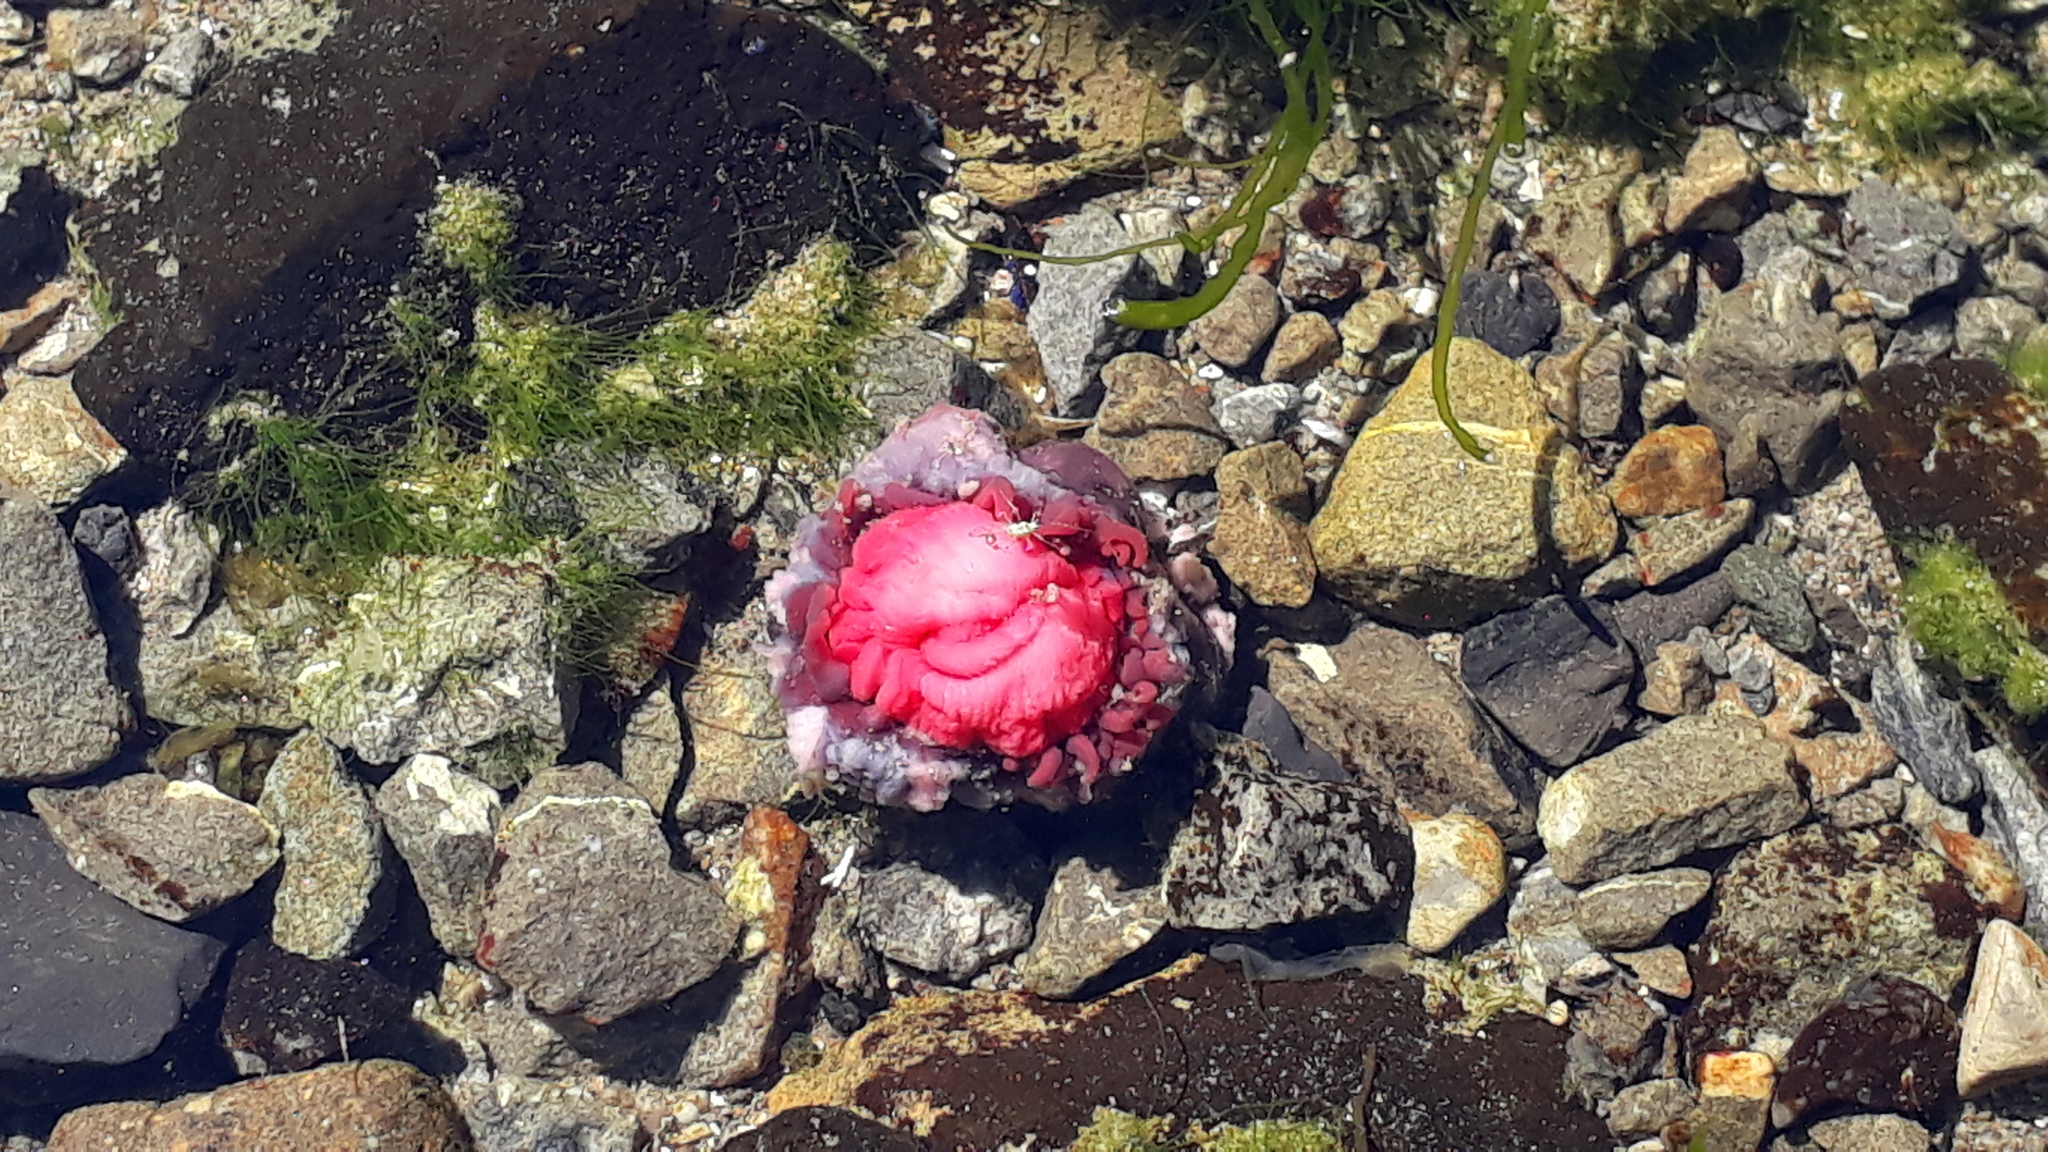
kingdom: Animalia
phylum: Cnidaria
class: Anthozoa
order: Actiniaria
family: Actiniidae
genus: Actinia
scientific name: Actinia tenebrosa
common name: Waratah anemone
